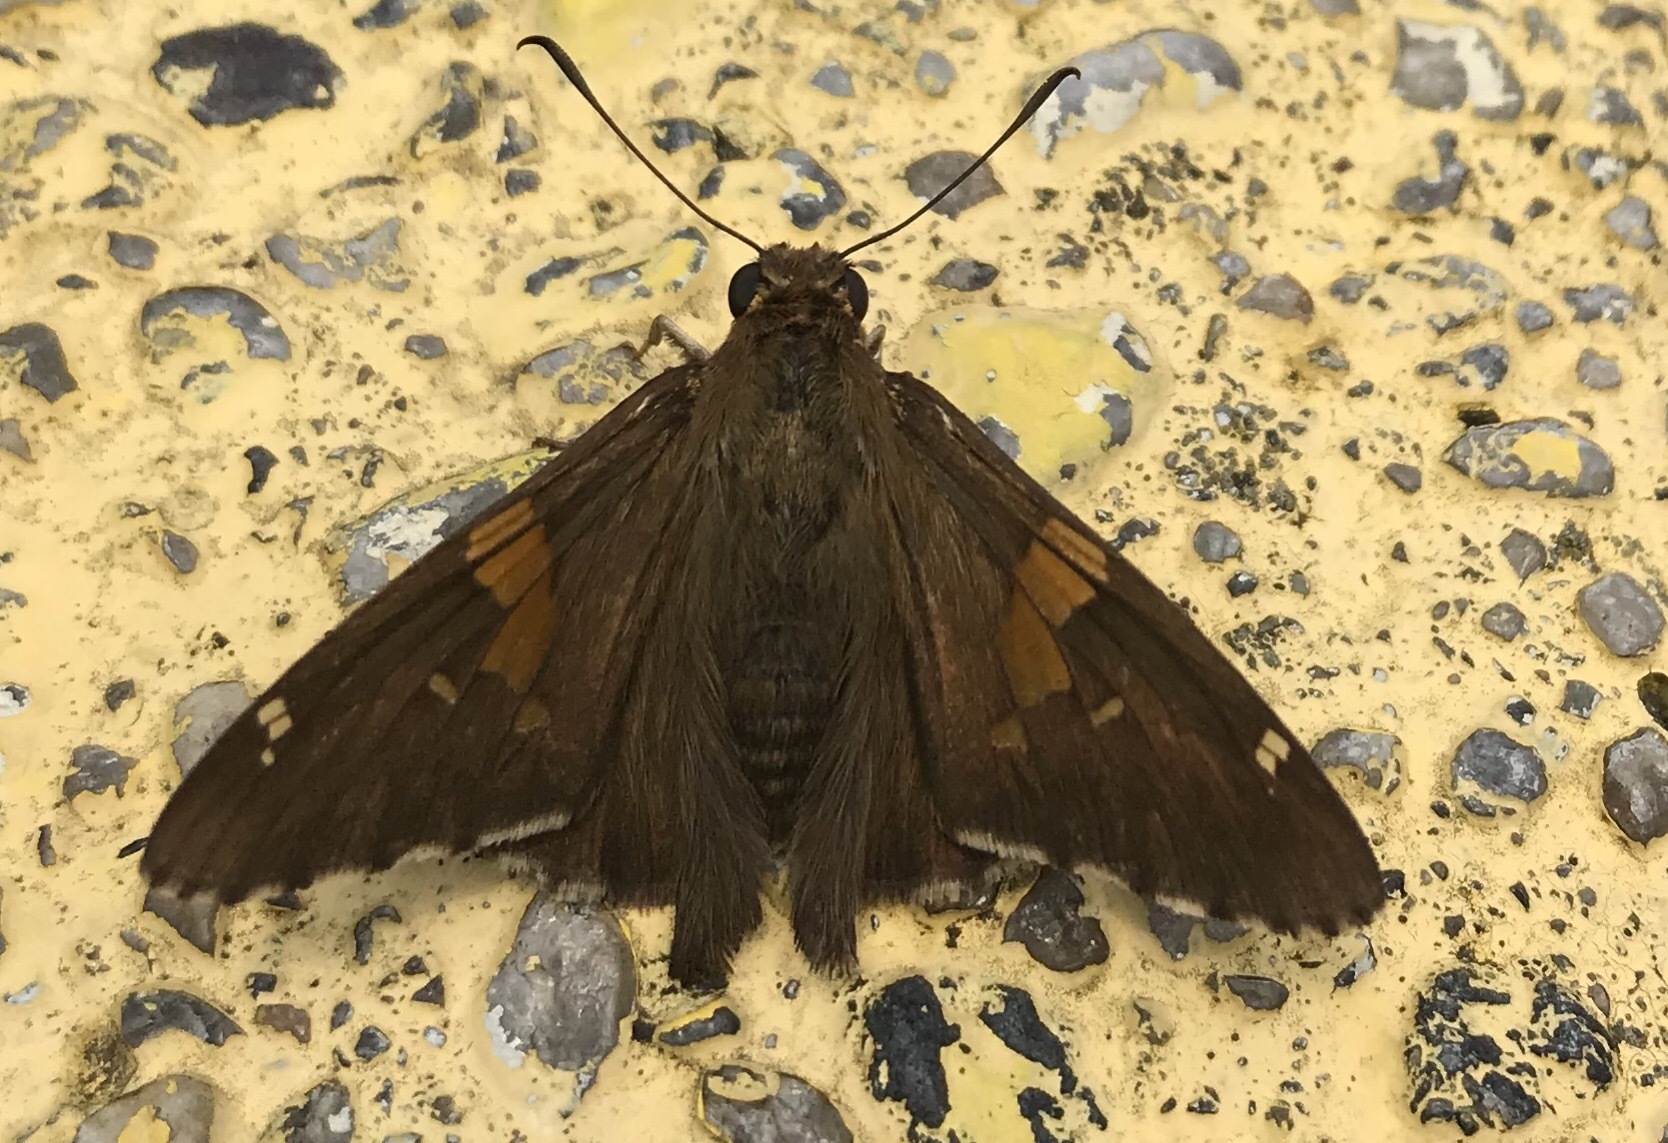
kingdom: Animalia
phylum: Arthropoda
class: Insecta
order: Lepidoptera
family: Hesperiidae
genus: Epargyreus
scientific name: Epargyreus clarus
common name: Silver-spotted skipper
